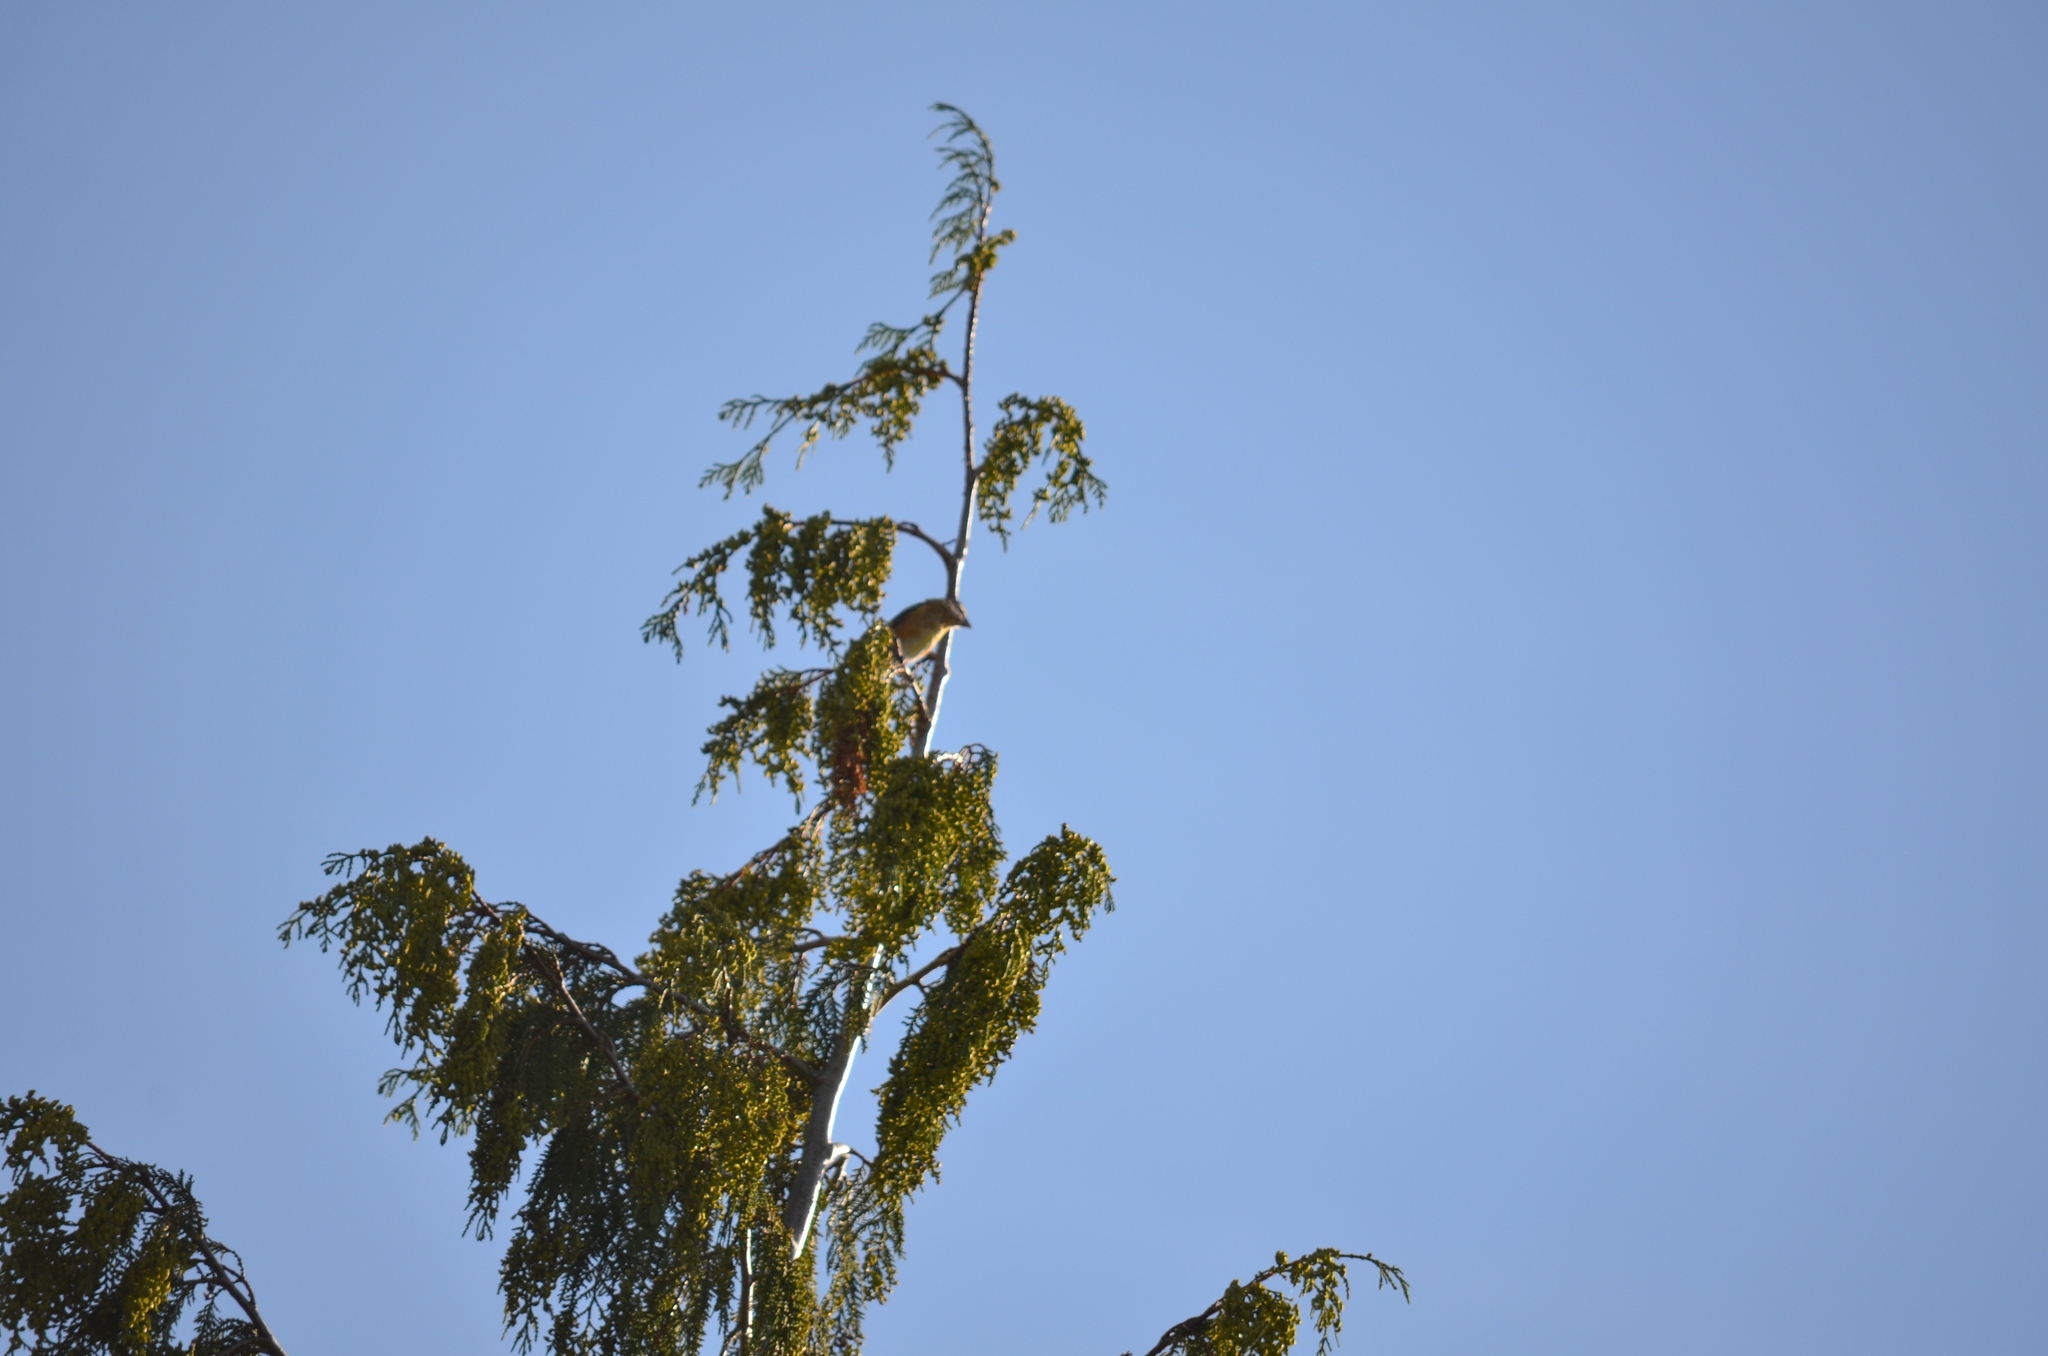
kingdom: Animalia
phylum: Chordata
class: Aves
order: Passeriformes
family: Cardinalidae
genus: Pheucticus
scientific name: Pheucticus melanocephalus
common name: Black-headed grosbeak
